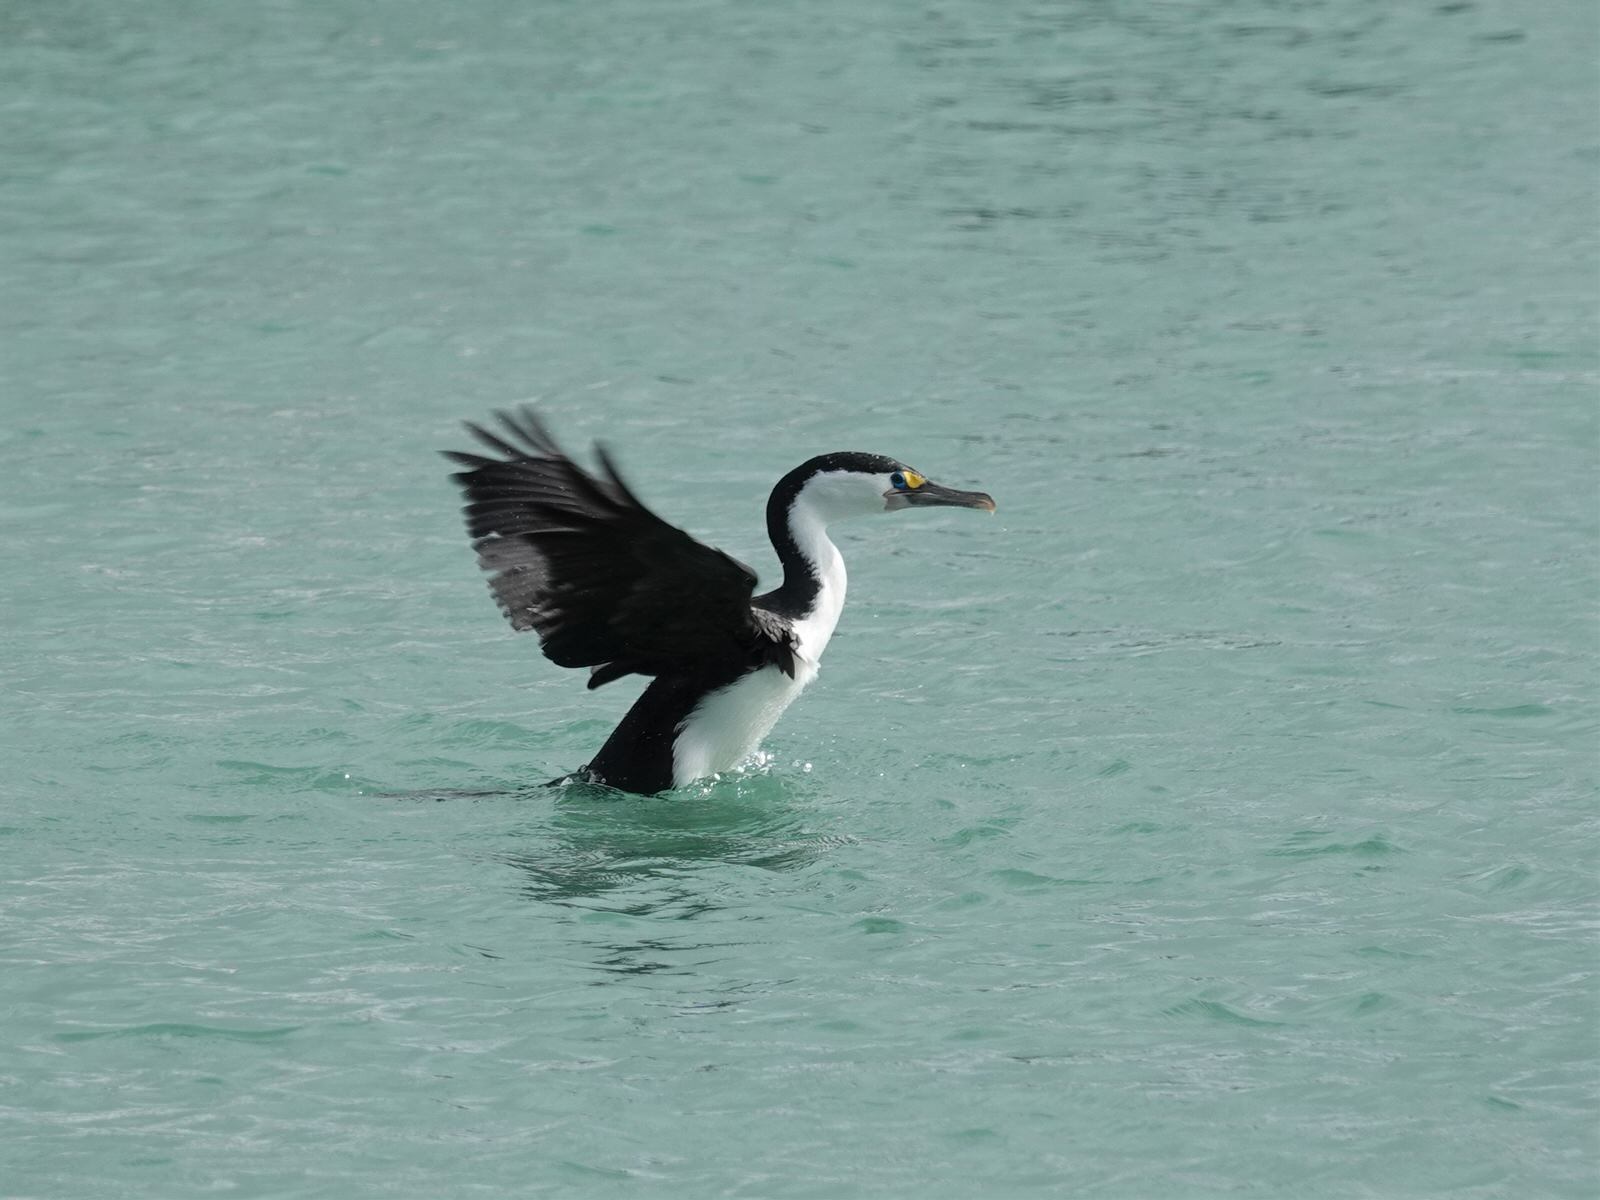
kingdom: Animalia
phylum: Chordata
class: Aves
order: Suliformes
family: Phalacrocoracidae
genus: Phalacrocorax
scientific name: Phalacrocorax varius
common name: Pied cormorant
